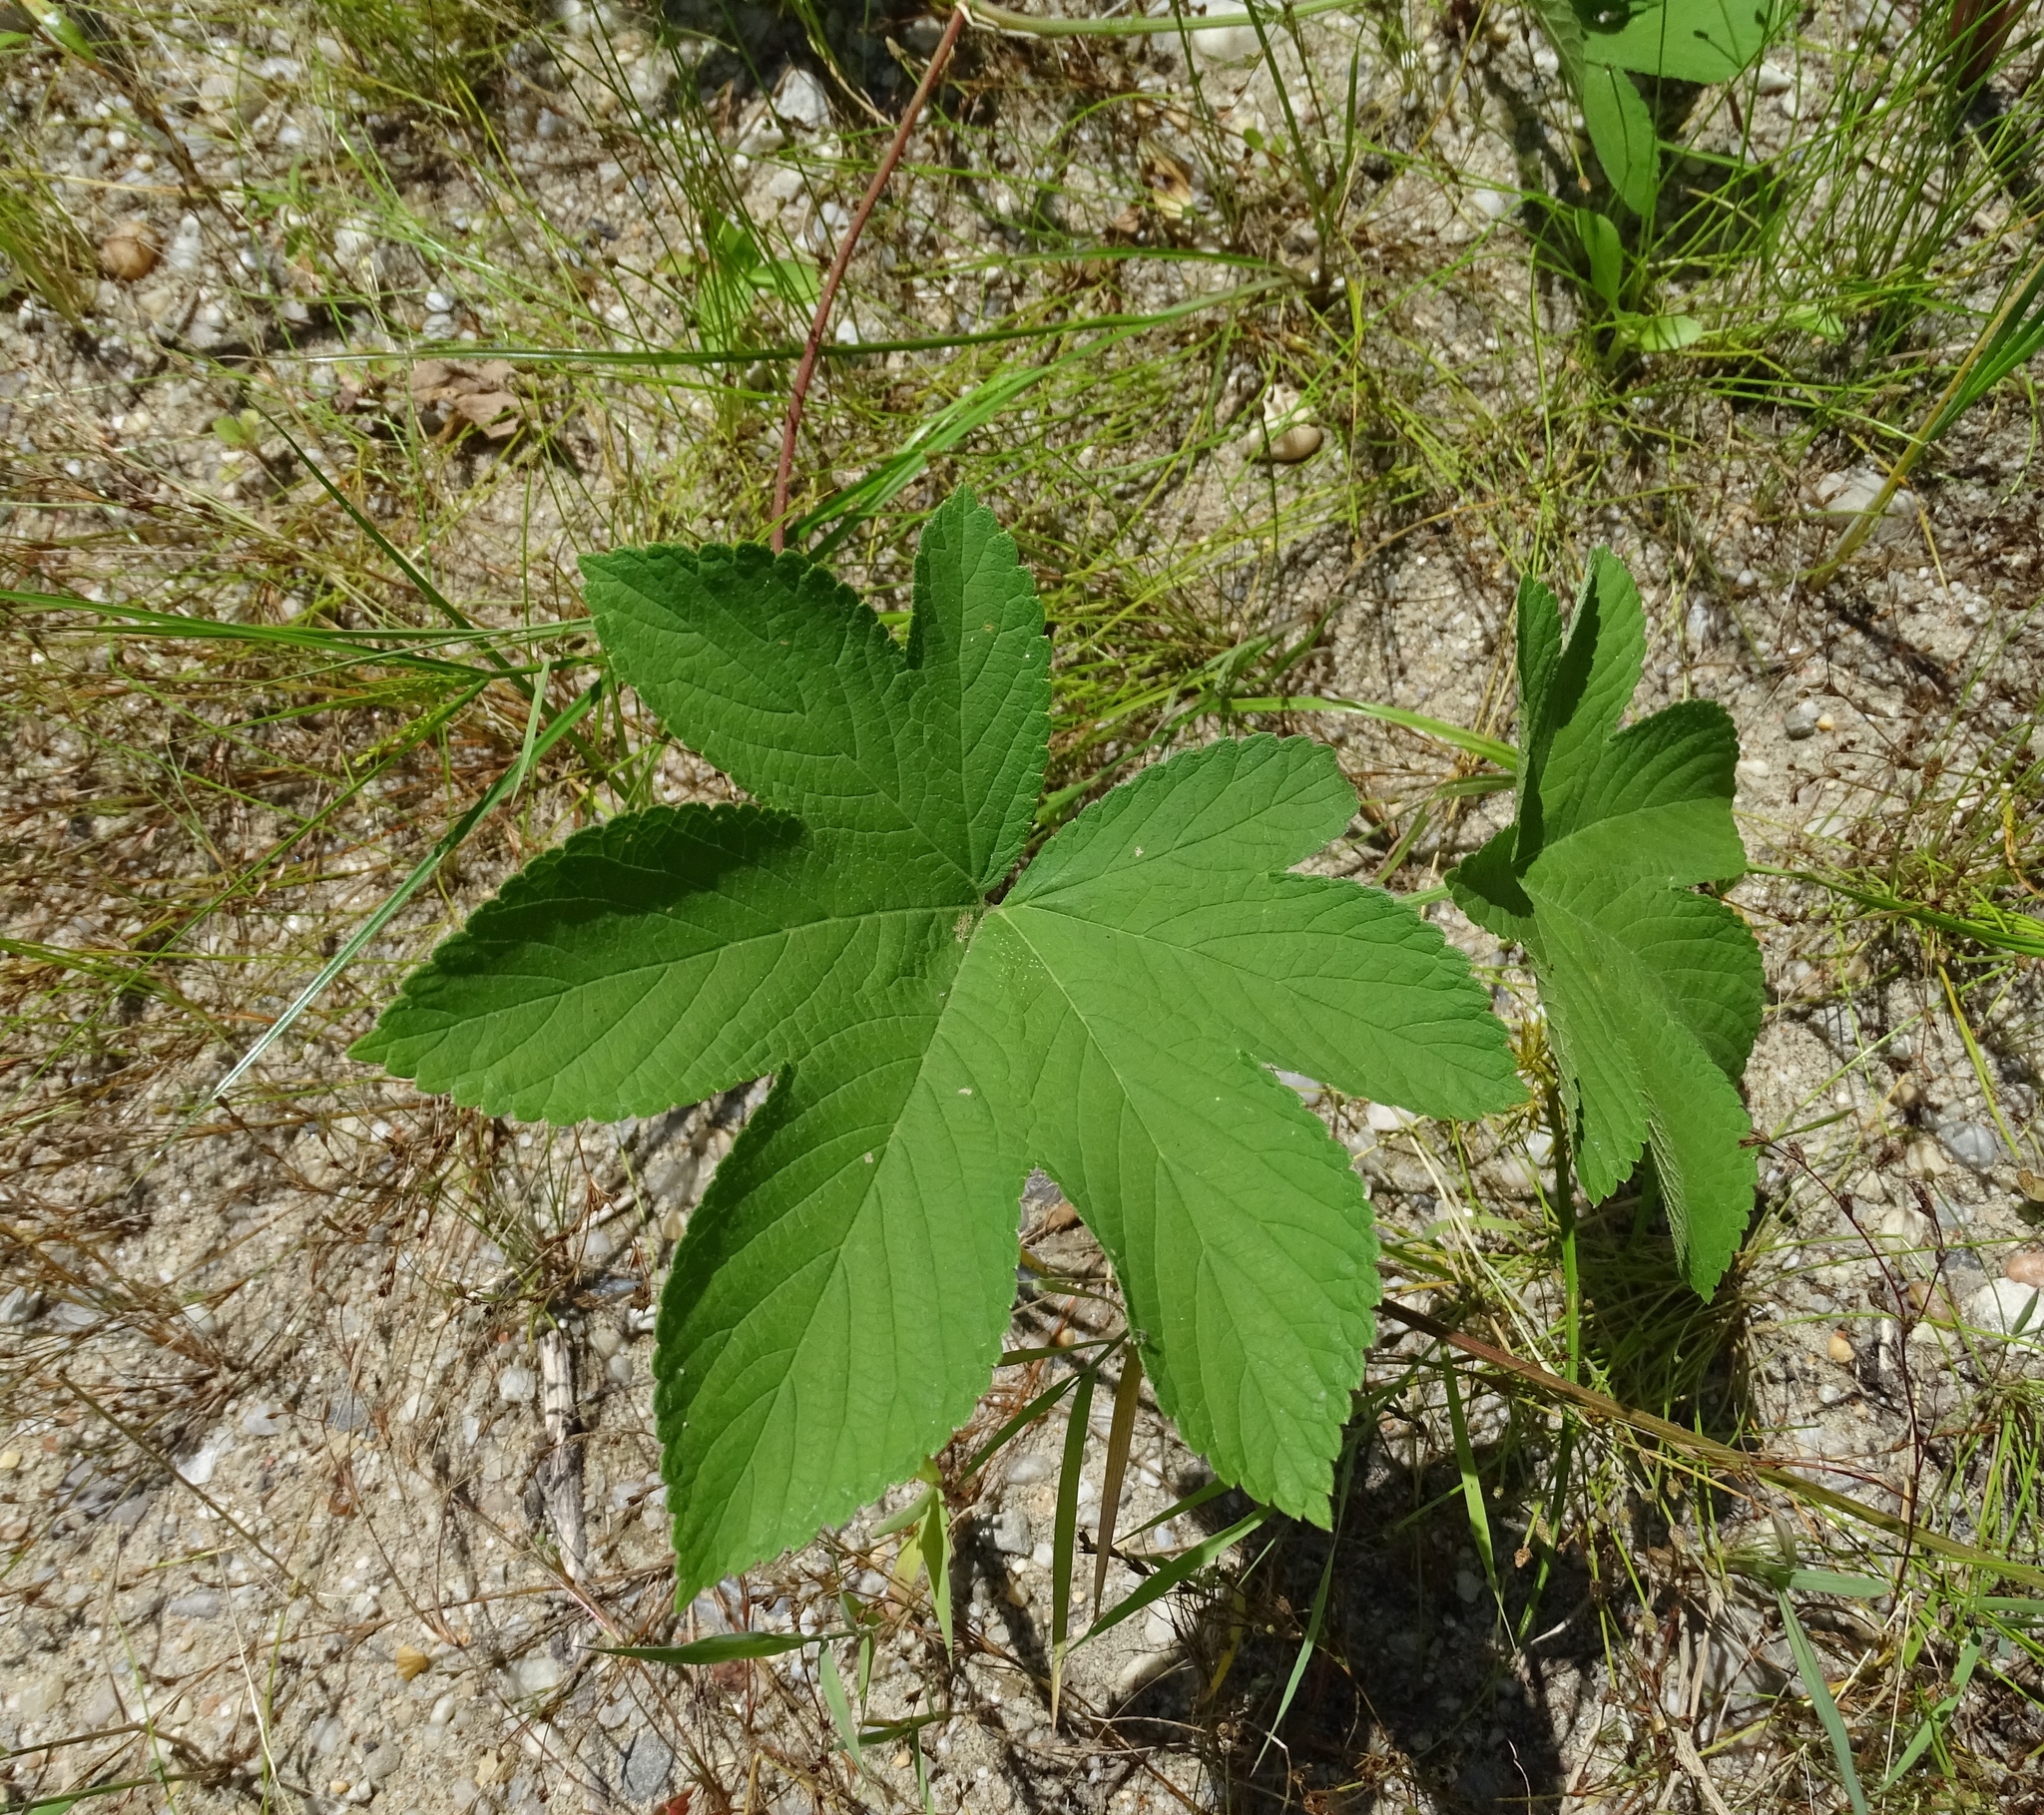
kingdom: Plantae
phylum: Tracheophyta
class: Magnoliopsida
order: Rosales
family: Cannabaceae
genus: Humulus
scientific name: Humulus scandens
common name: Japanese hop
